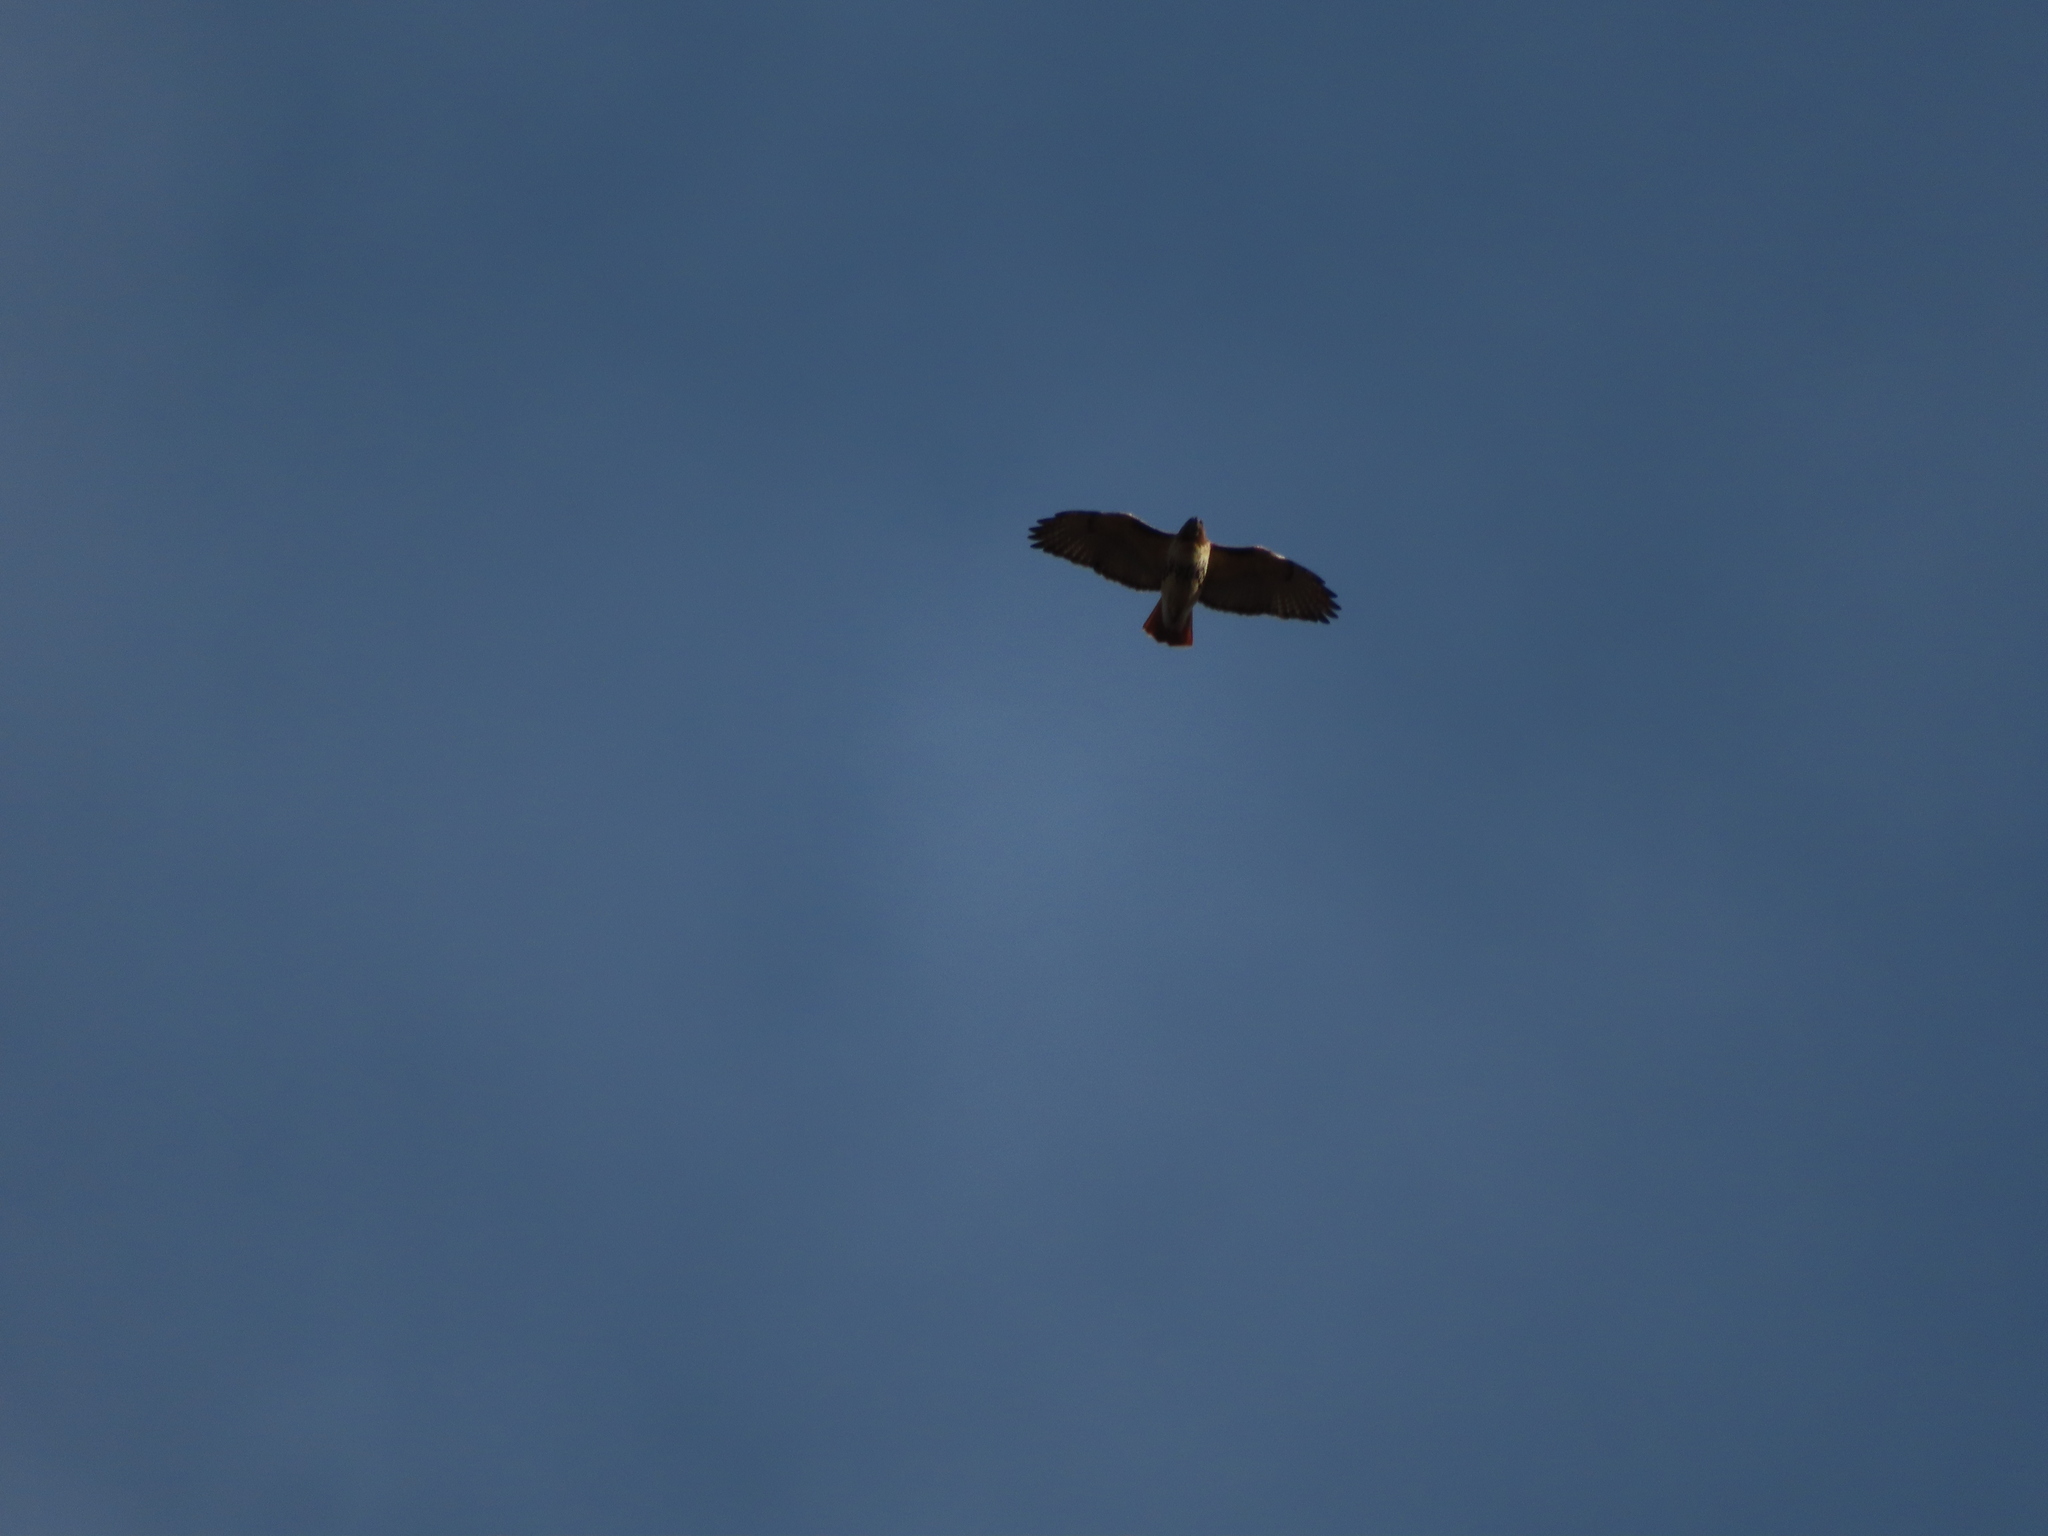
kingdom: Animalia
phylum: Chordata
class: Aves
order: Accipitriformes
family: Accipitridae
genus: Buteo
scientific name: Buteo jamaicensis
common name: Red-tailed hawk
